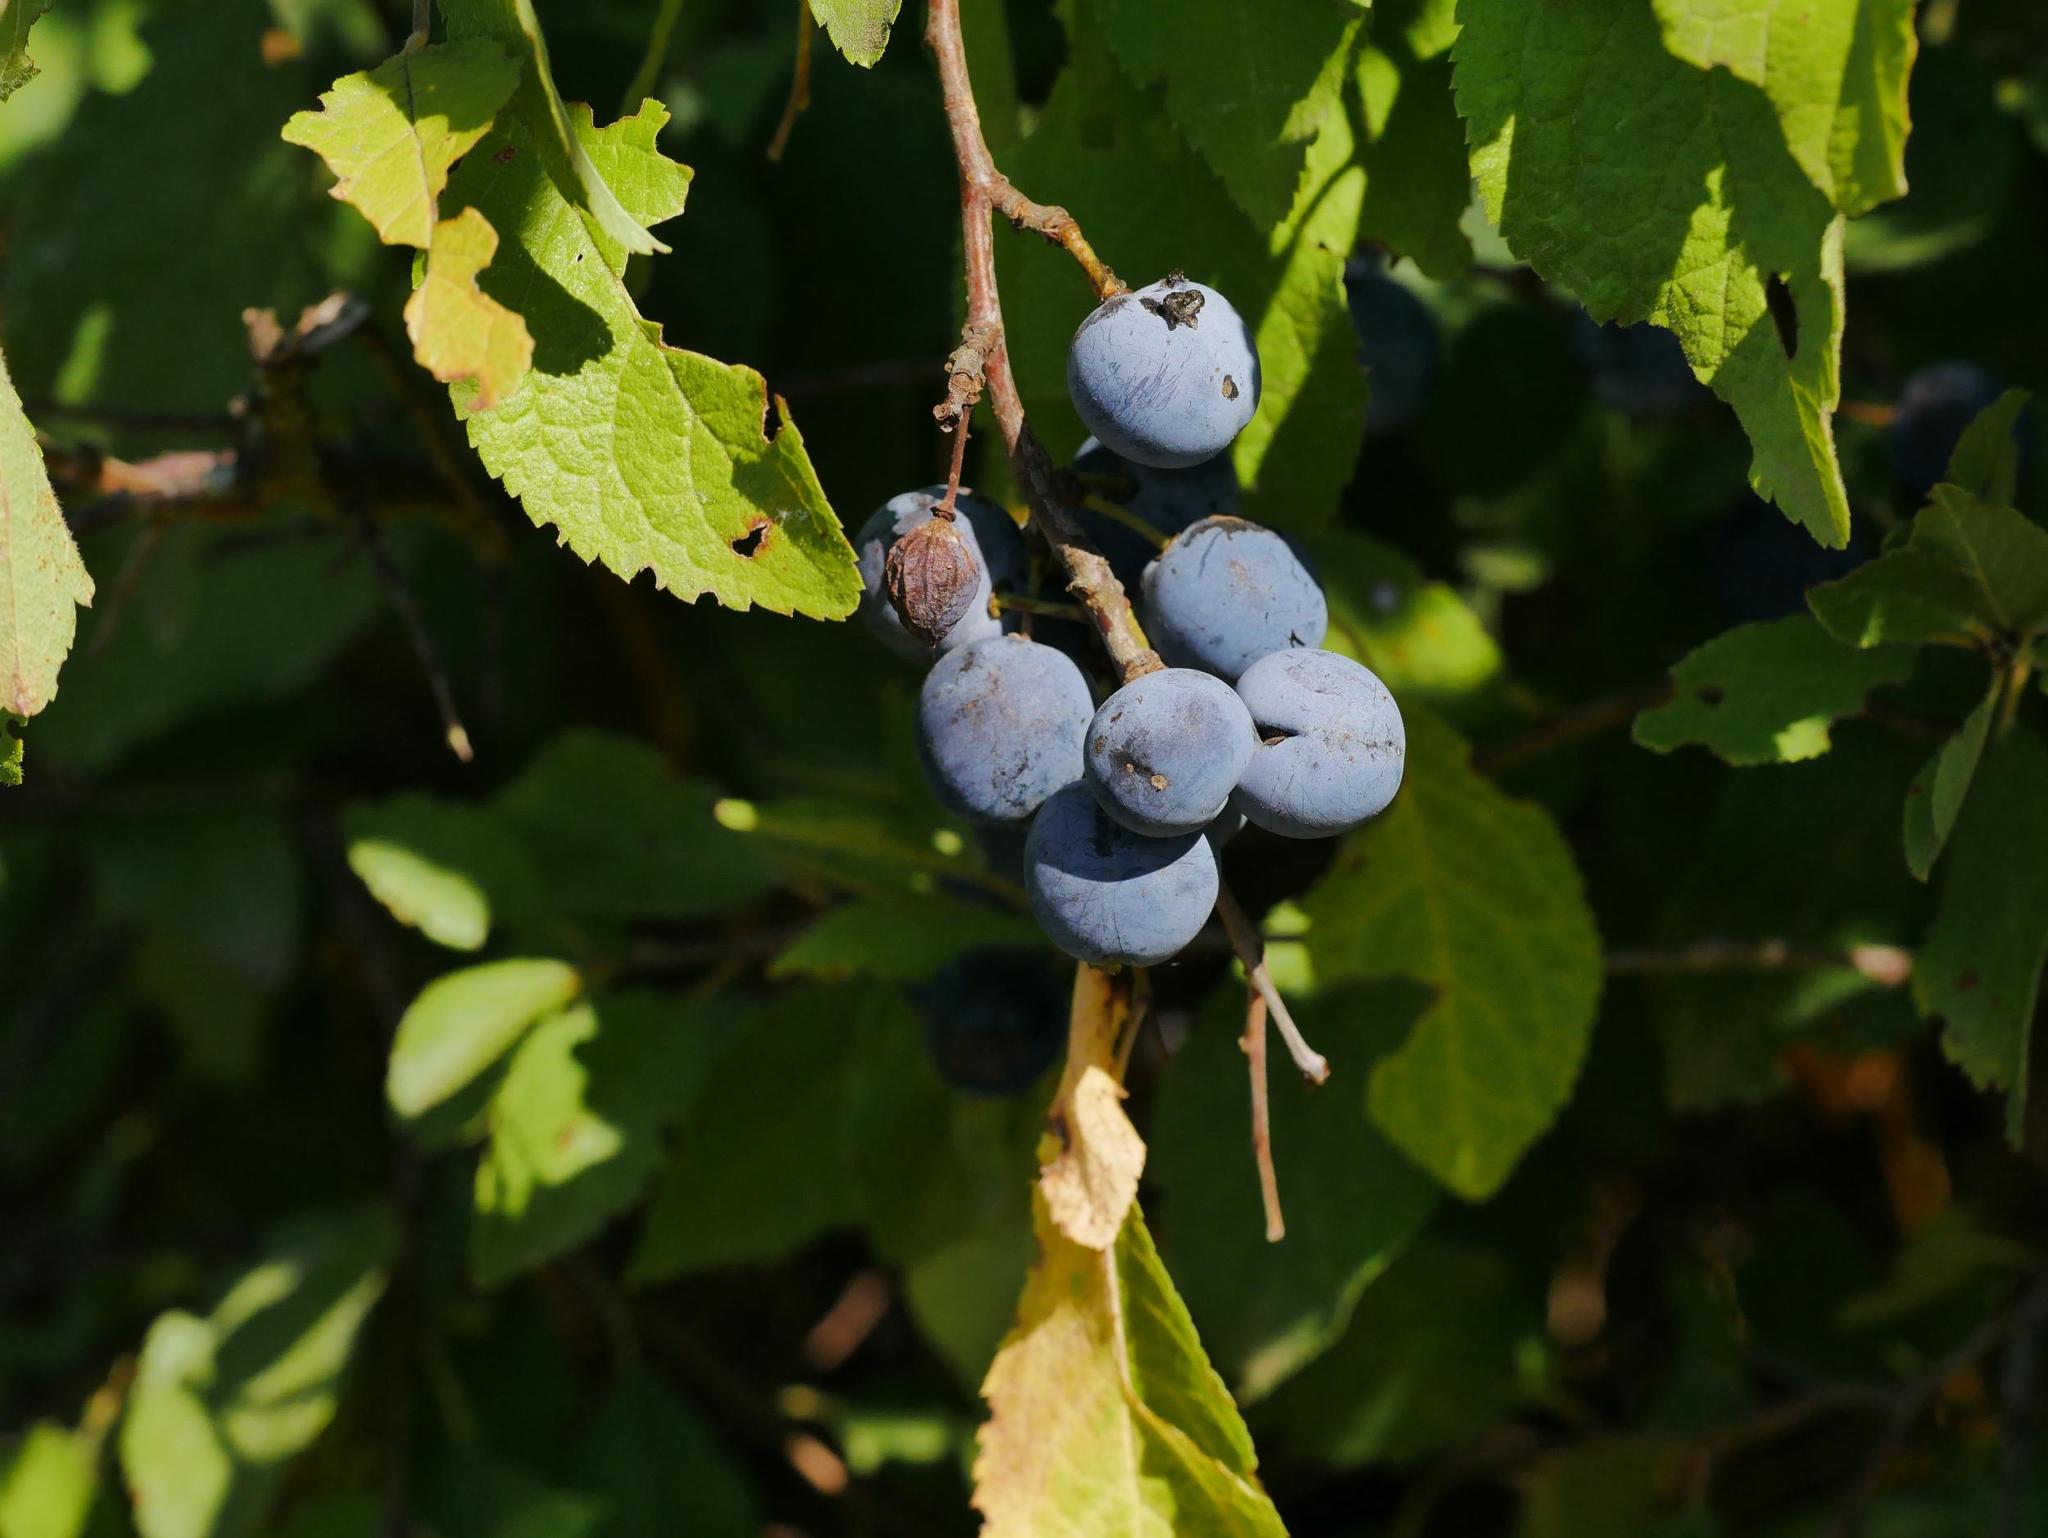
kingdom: Plantae
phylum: Tracheophyta
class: Magnoliopsida
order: Rosales
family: Rosaceae
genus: Prunus
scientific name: Prunus spinosa
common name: Blackthorn
